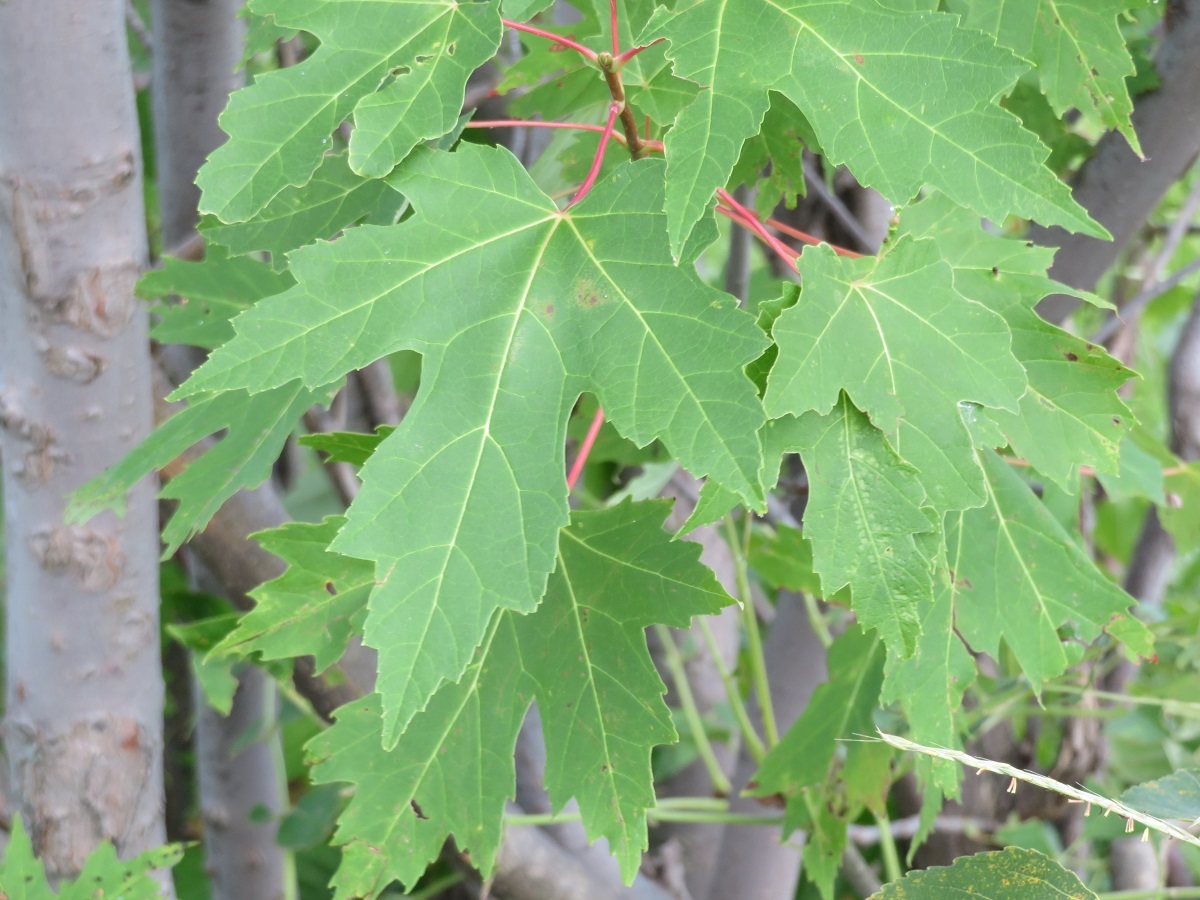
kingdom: Plantae
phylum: Tracheophyta
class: Magnoliopsida
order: Sapindales
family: Sapindaceae
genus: Acer
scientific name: Acer saccharinum
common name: Silver maple
